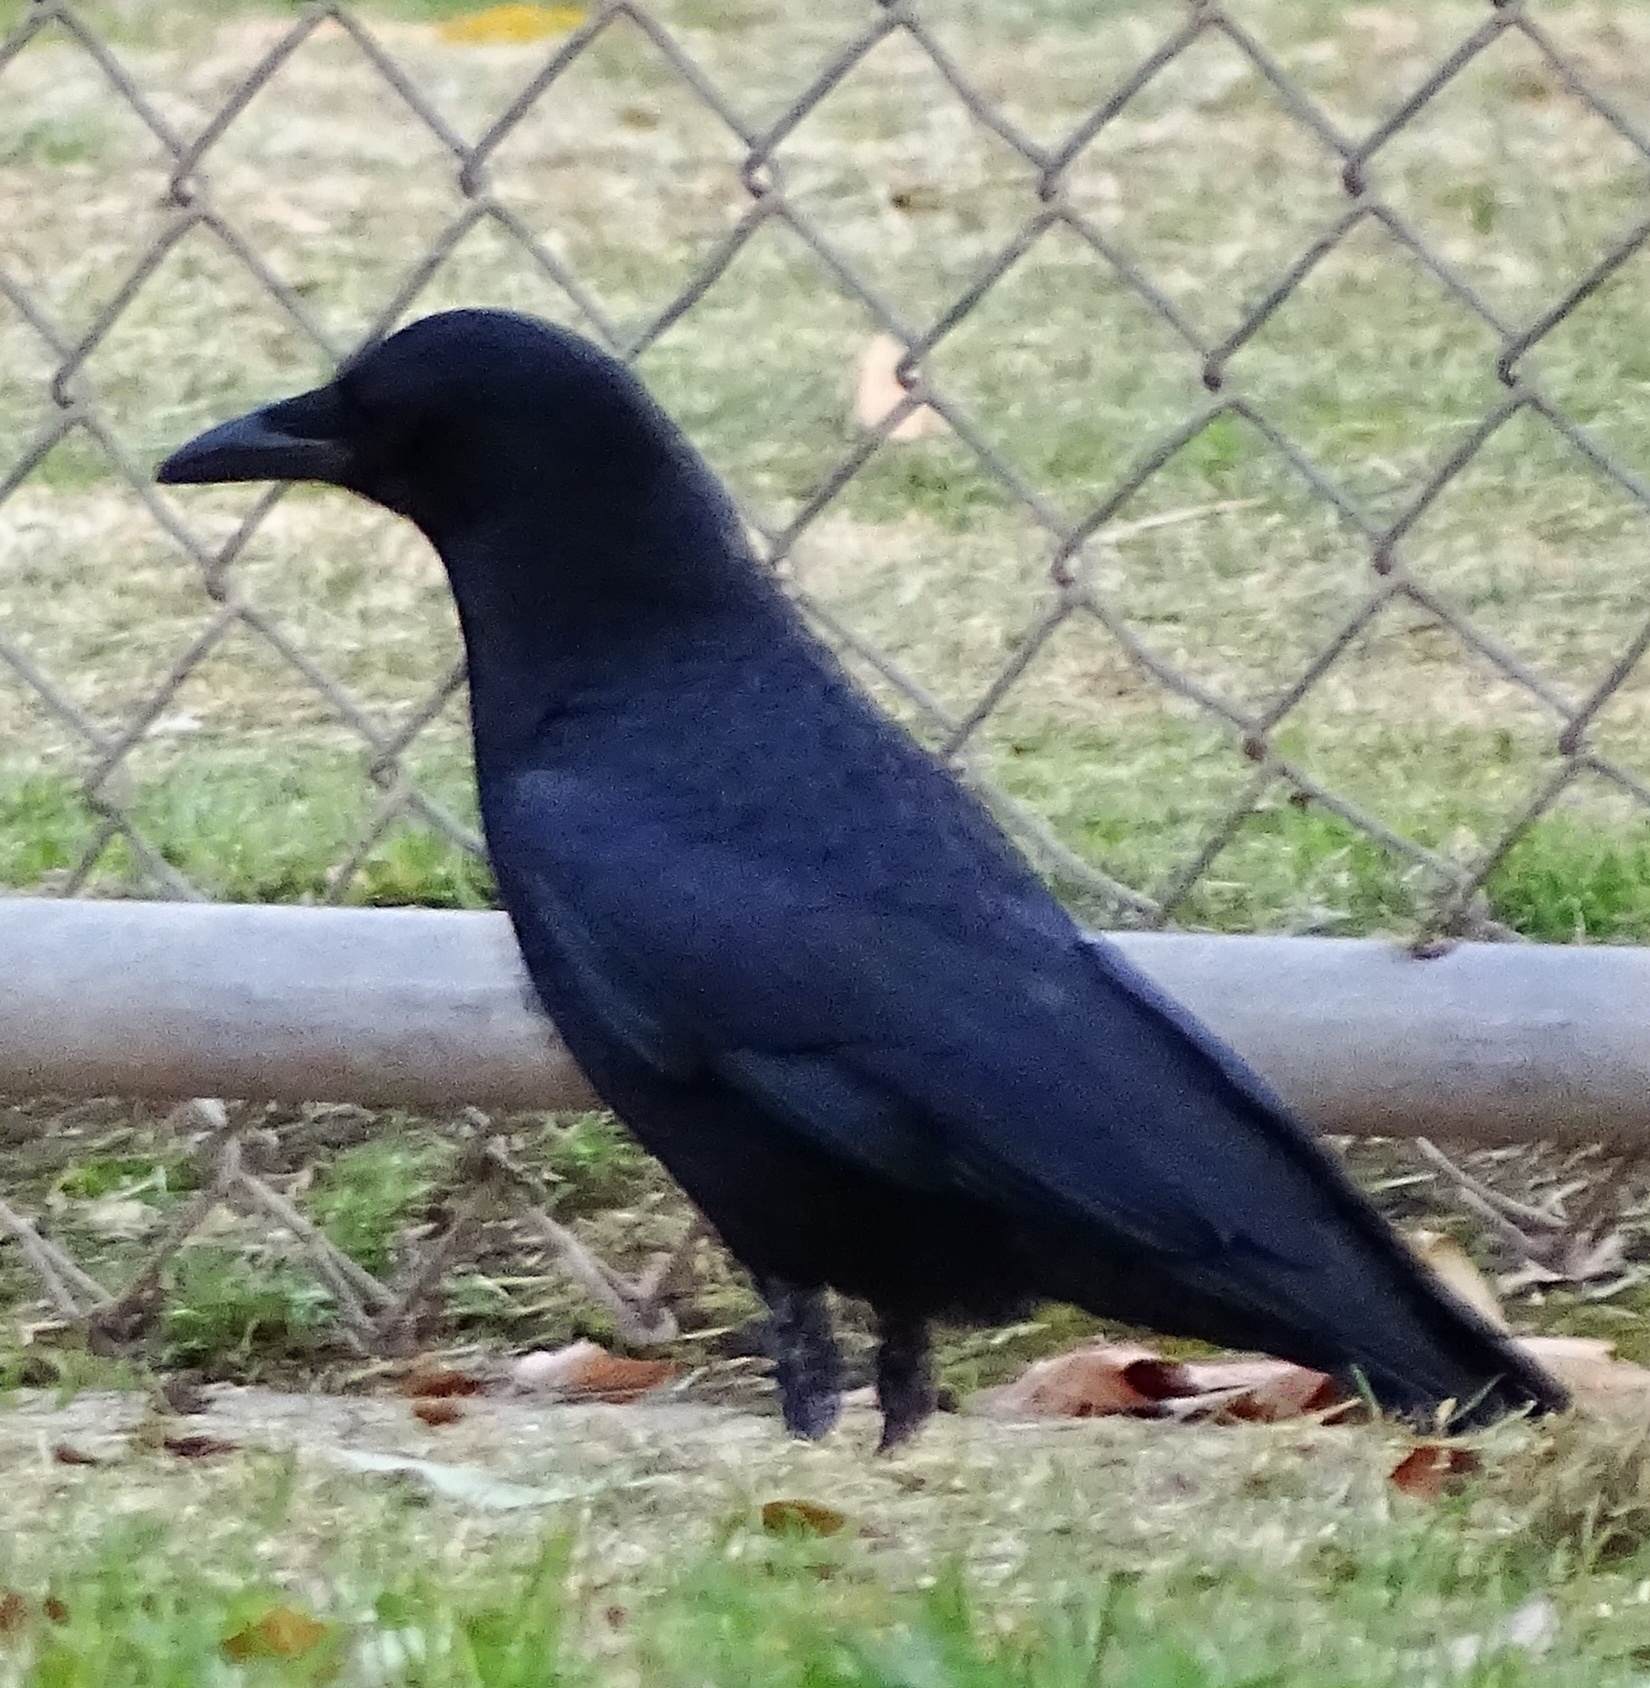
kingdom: Animalia
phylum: Chordata
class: Aves
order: Passeriformes
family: Corvidae
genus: Corvus
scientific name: Corvus brachyrhynchos
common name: American crow
